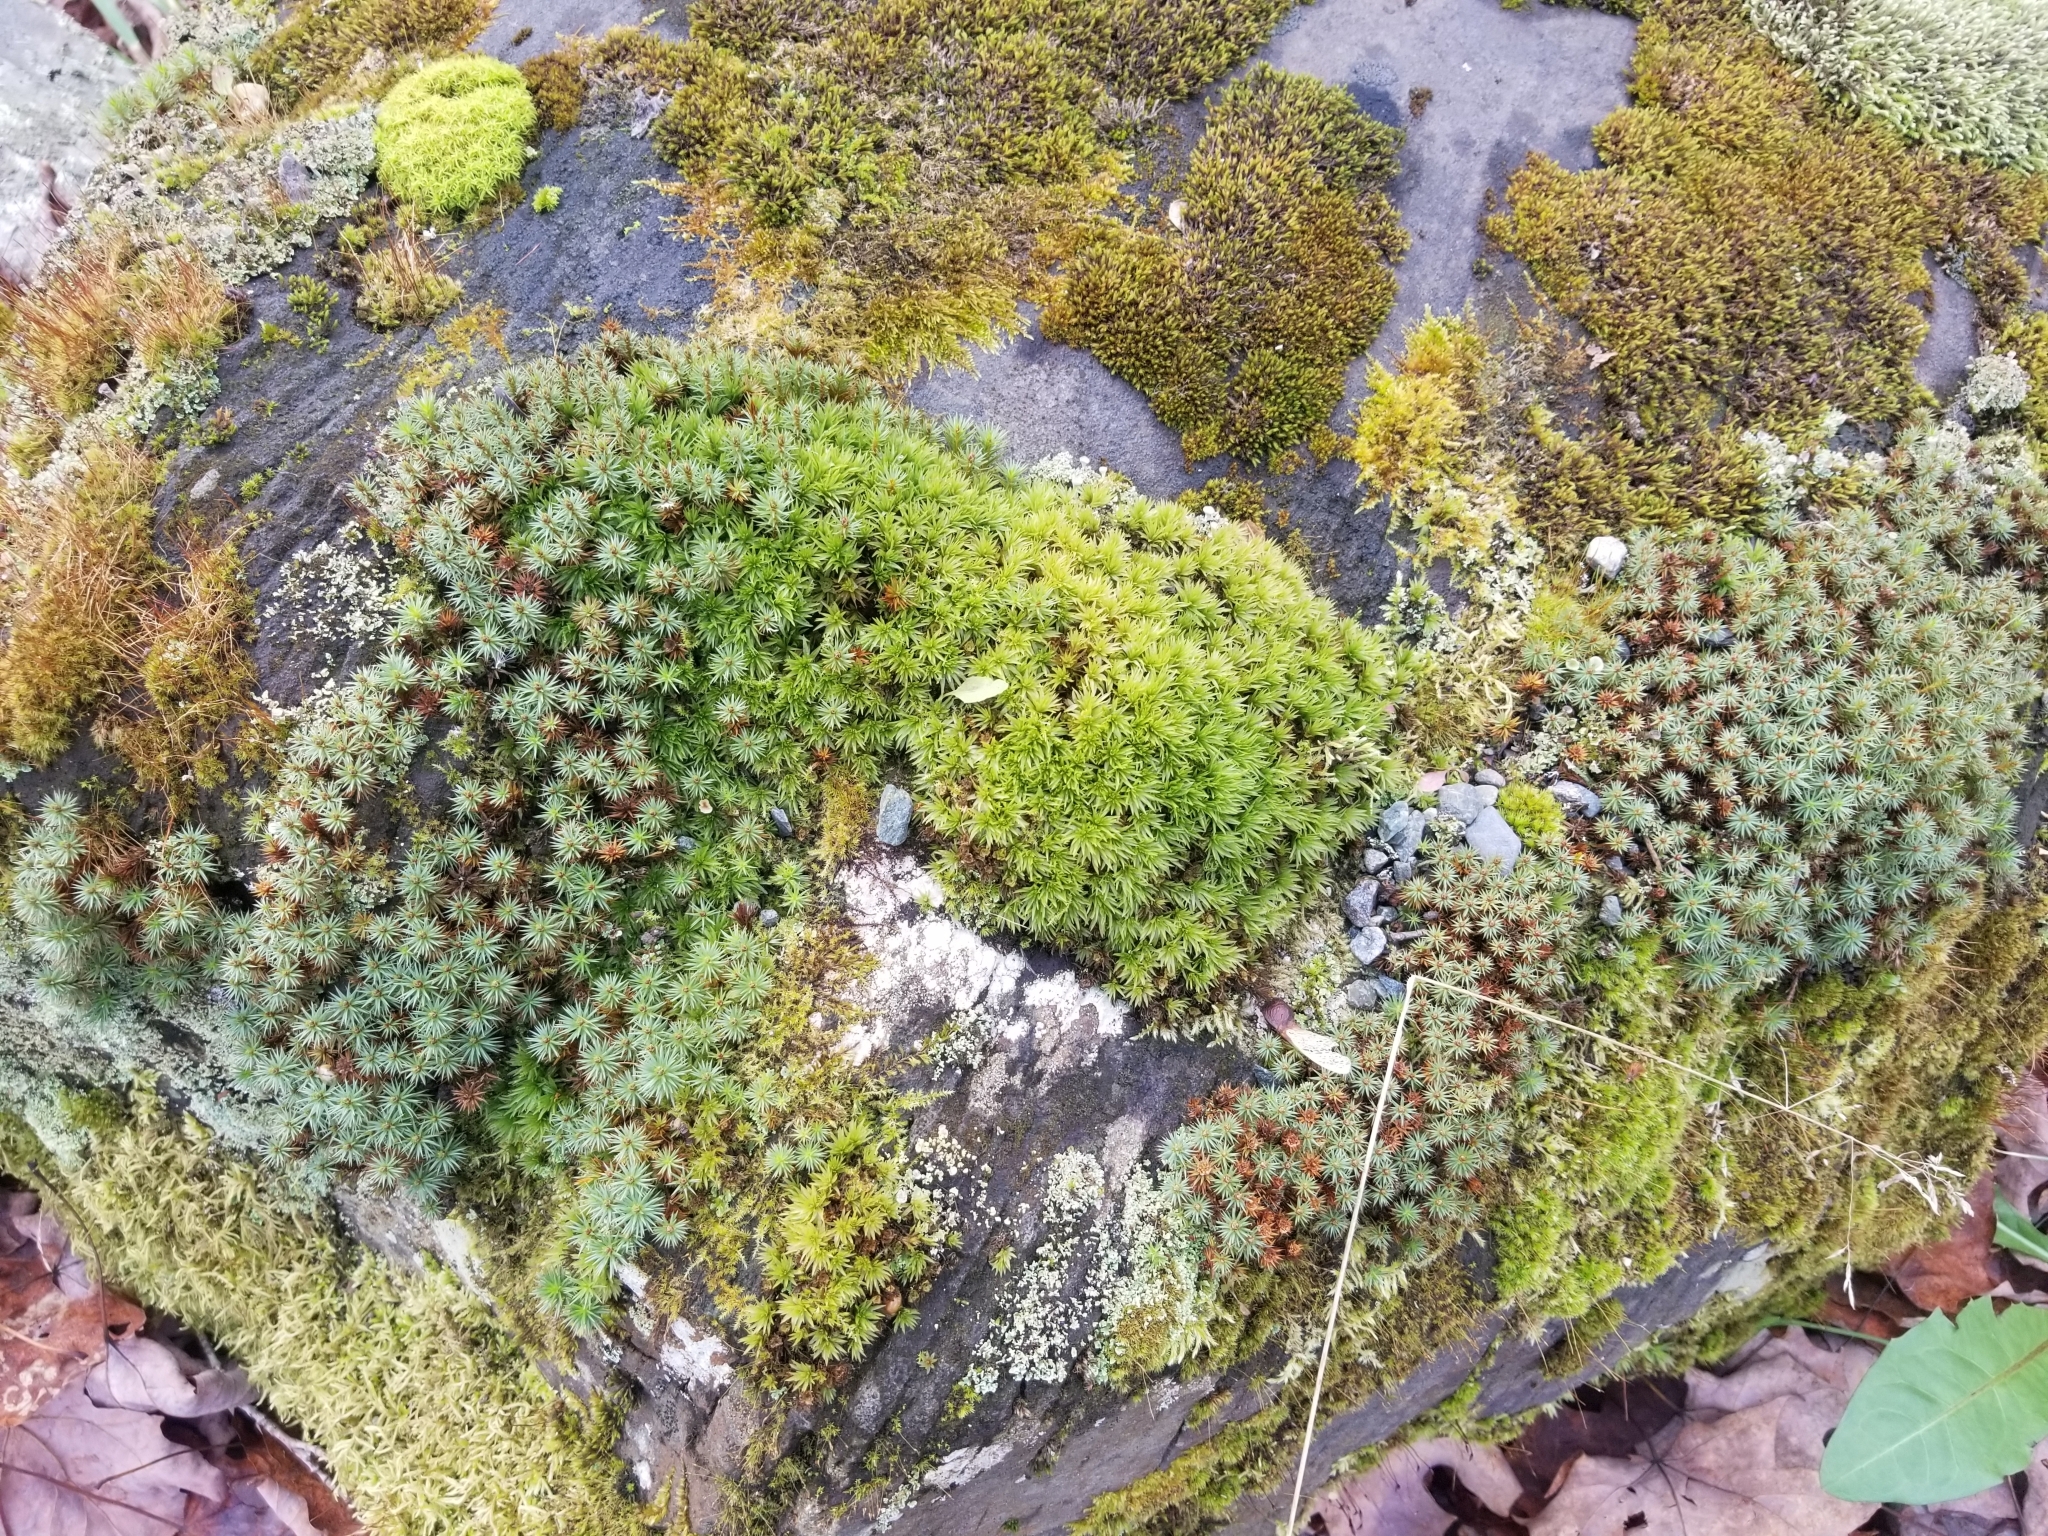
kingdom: Plantae
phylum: Bryophyta
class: Polytrichopsida
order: Polytrichales
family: Polytrichaceae
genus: Polytrichum
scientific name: Polytrichum juniperinum
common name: Juniper haircap moss
